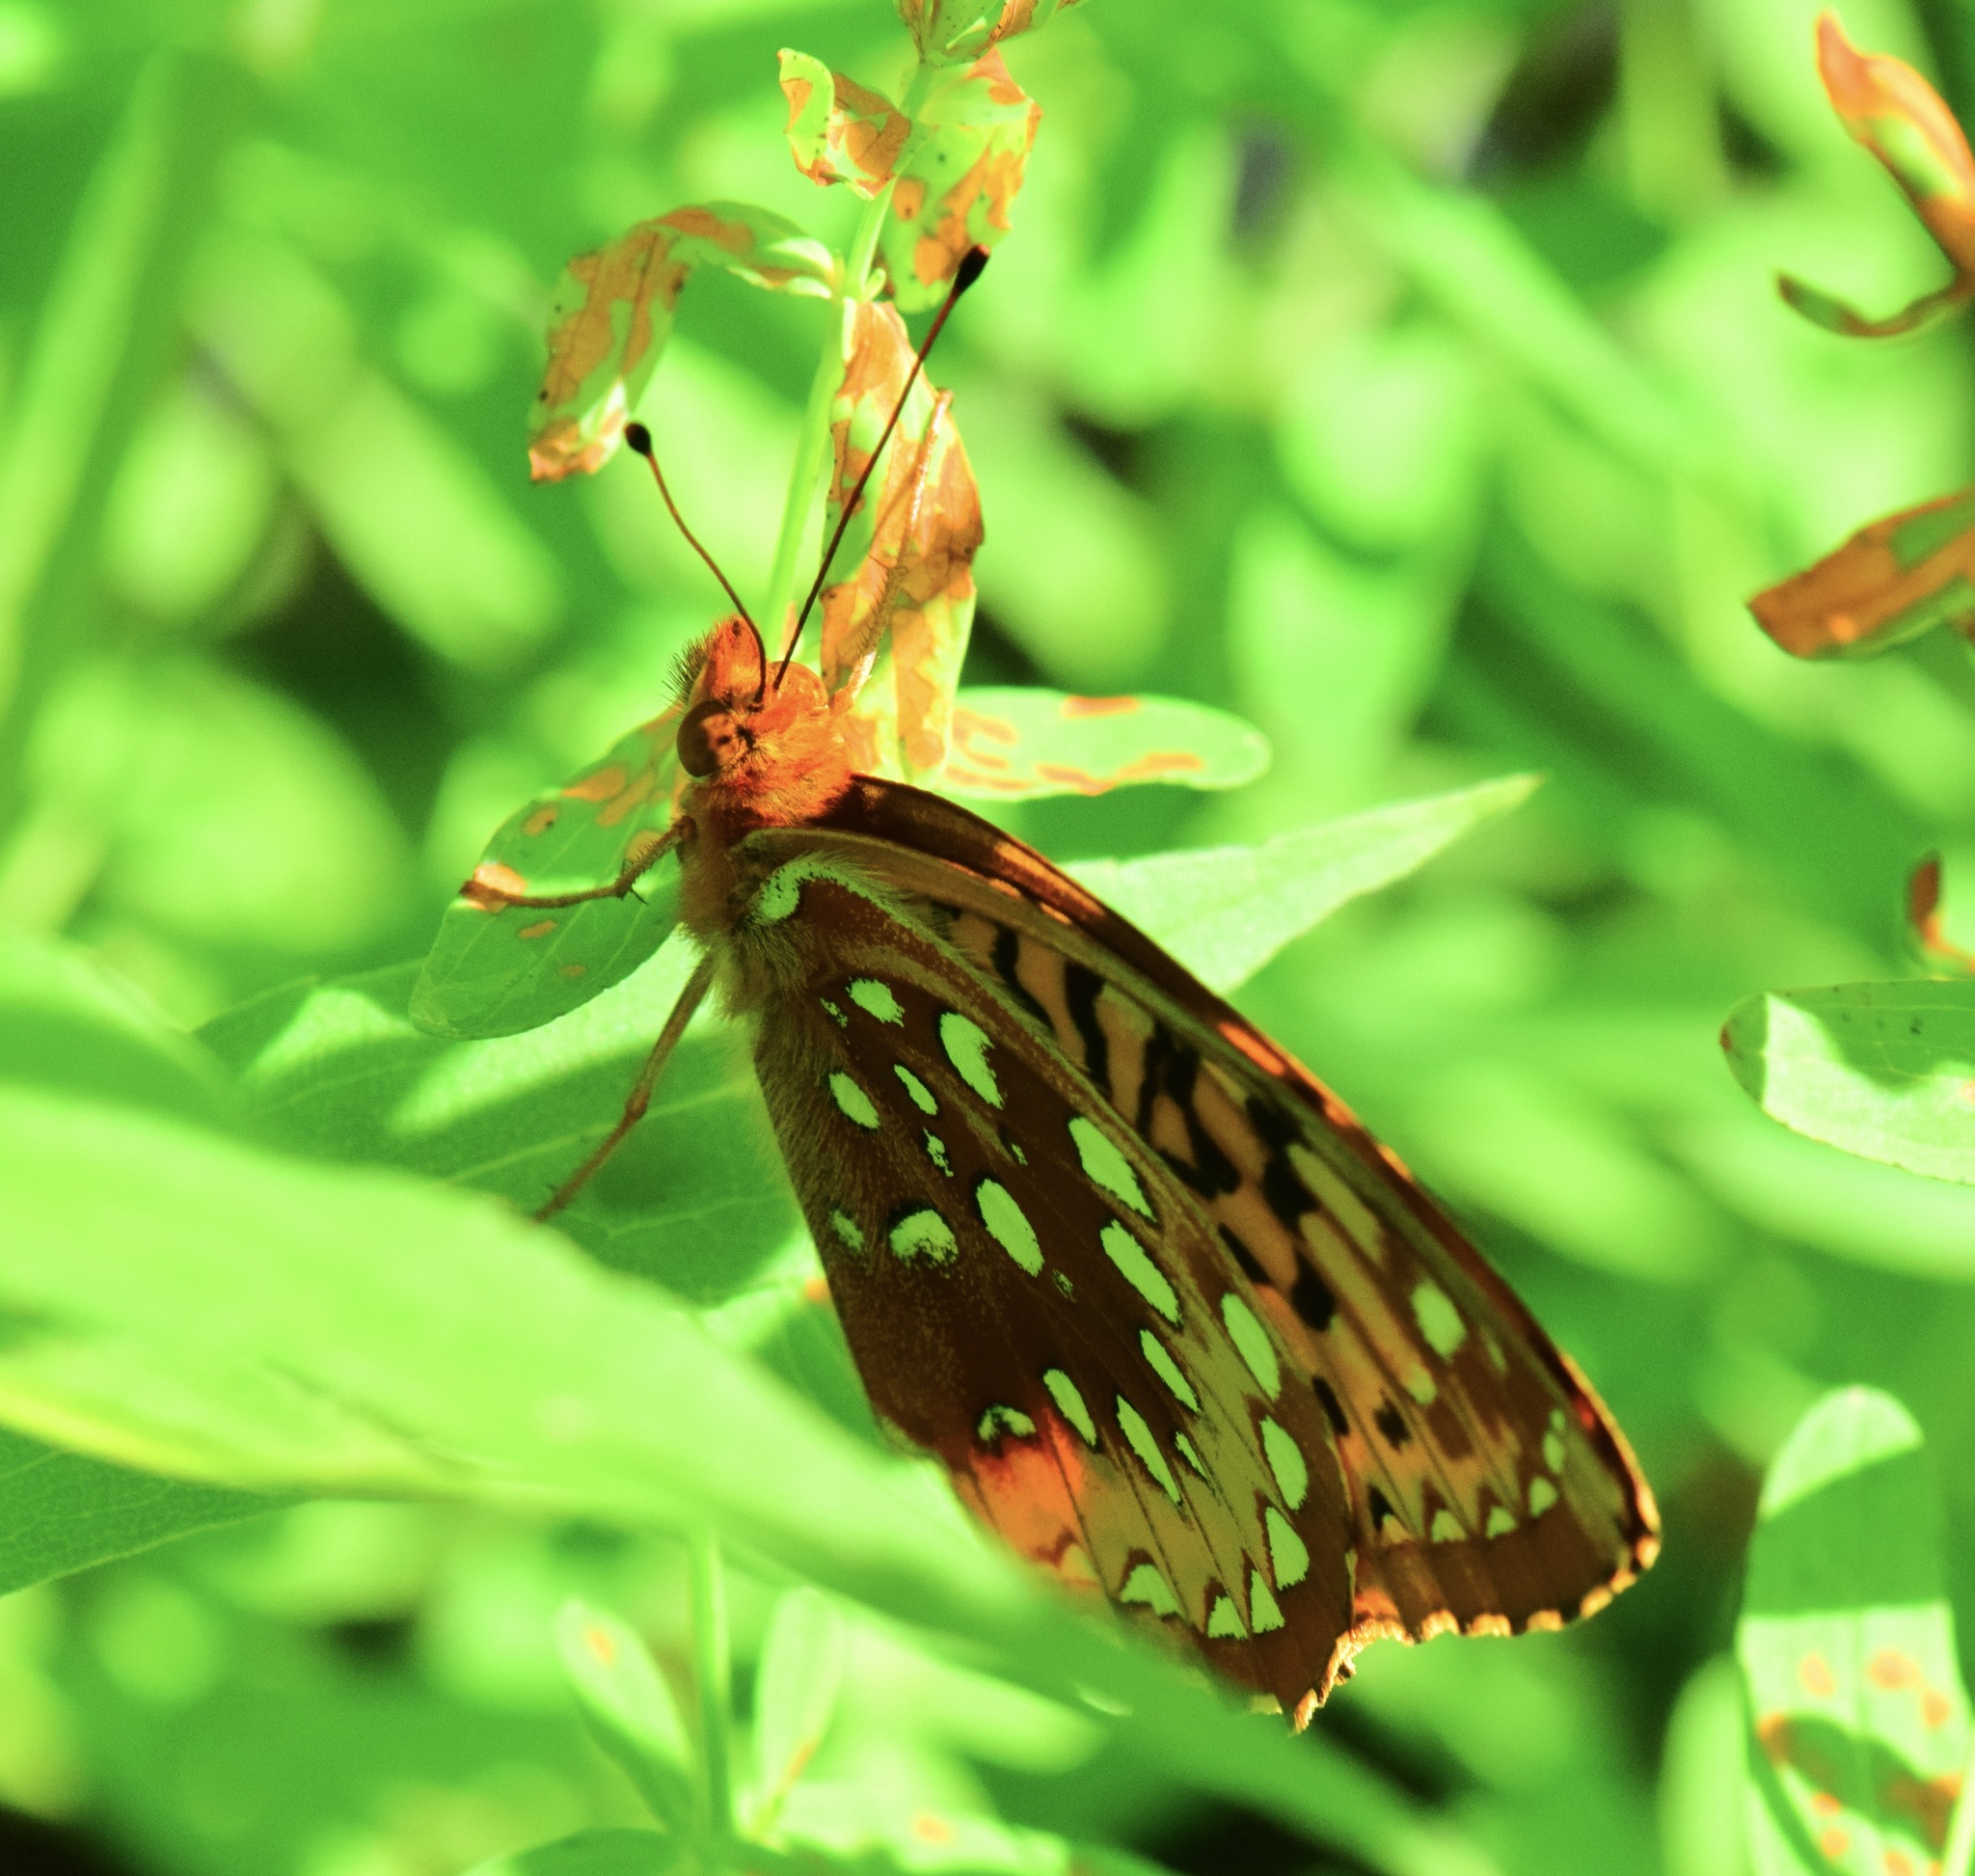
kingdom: Animalia
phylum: Arthropoda
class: Insecta
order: Lepidoptera
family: Nymphalidae
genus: Speyeria
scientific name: Speyeria cybele
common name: Great spangled fritillary
